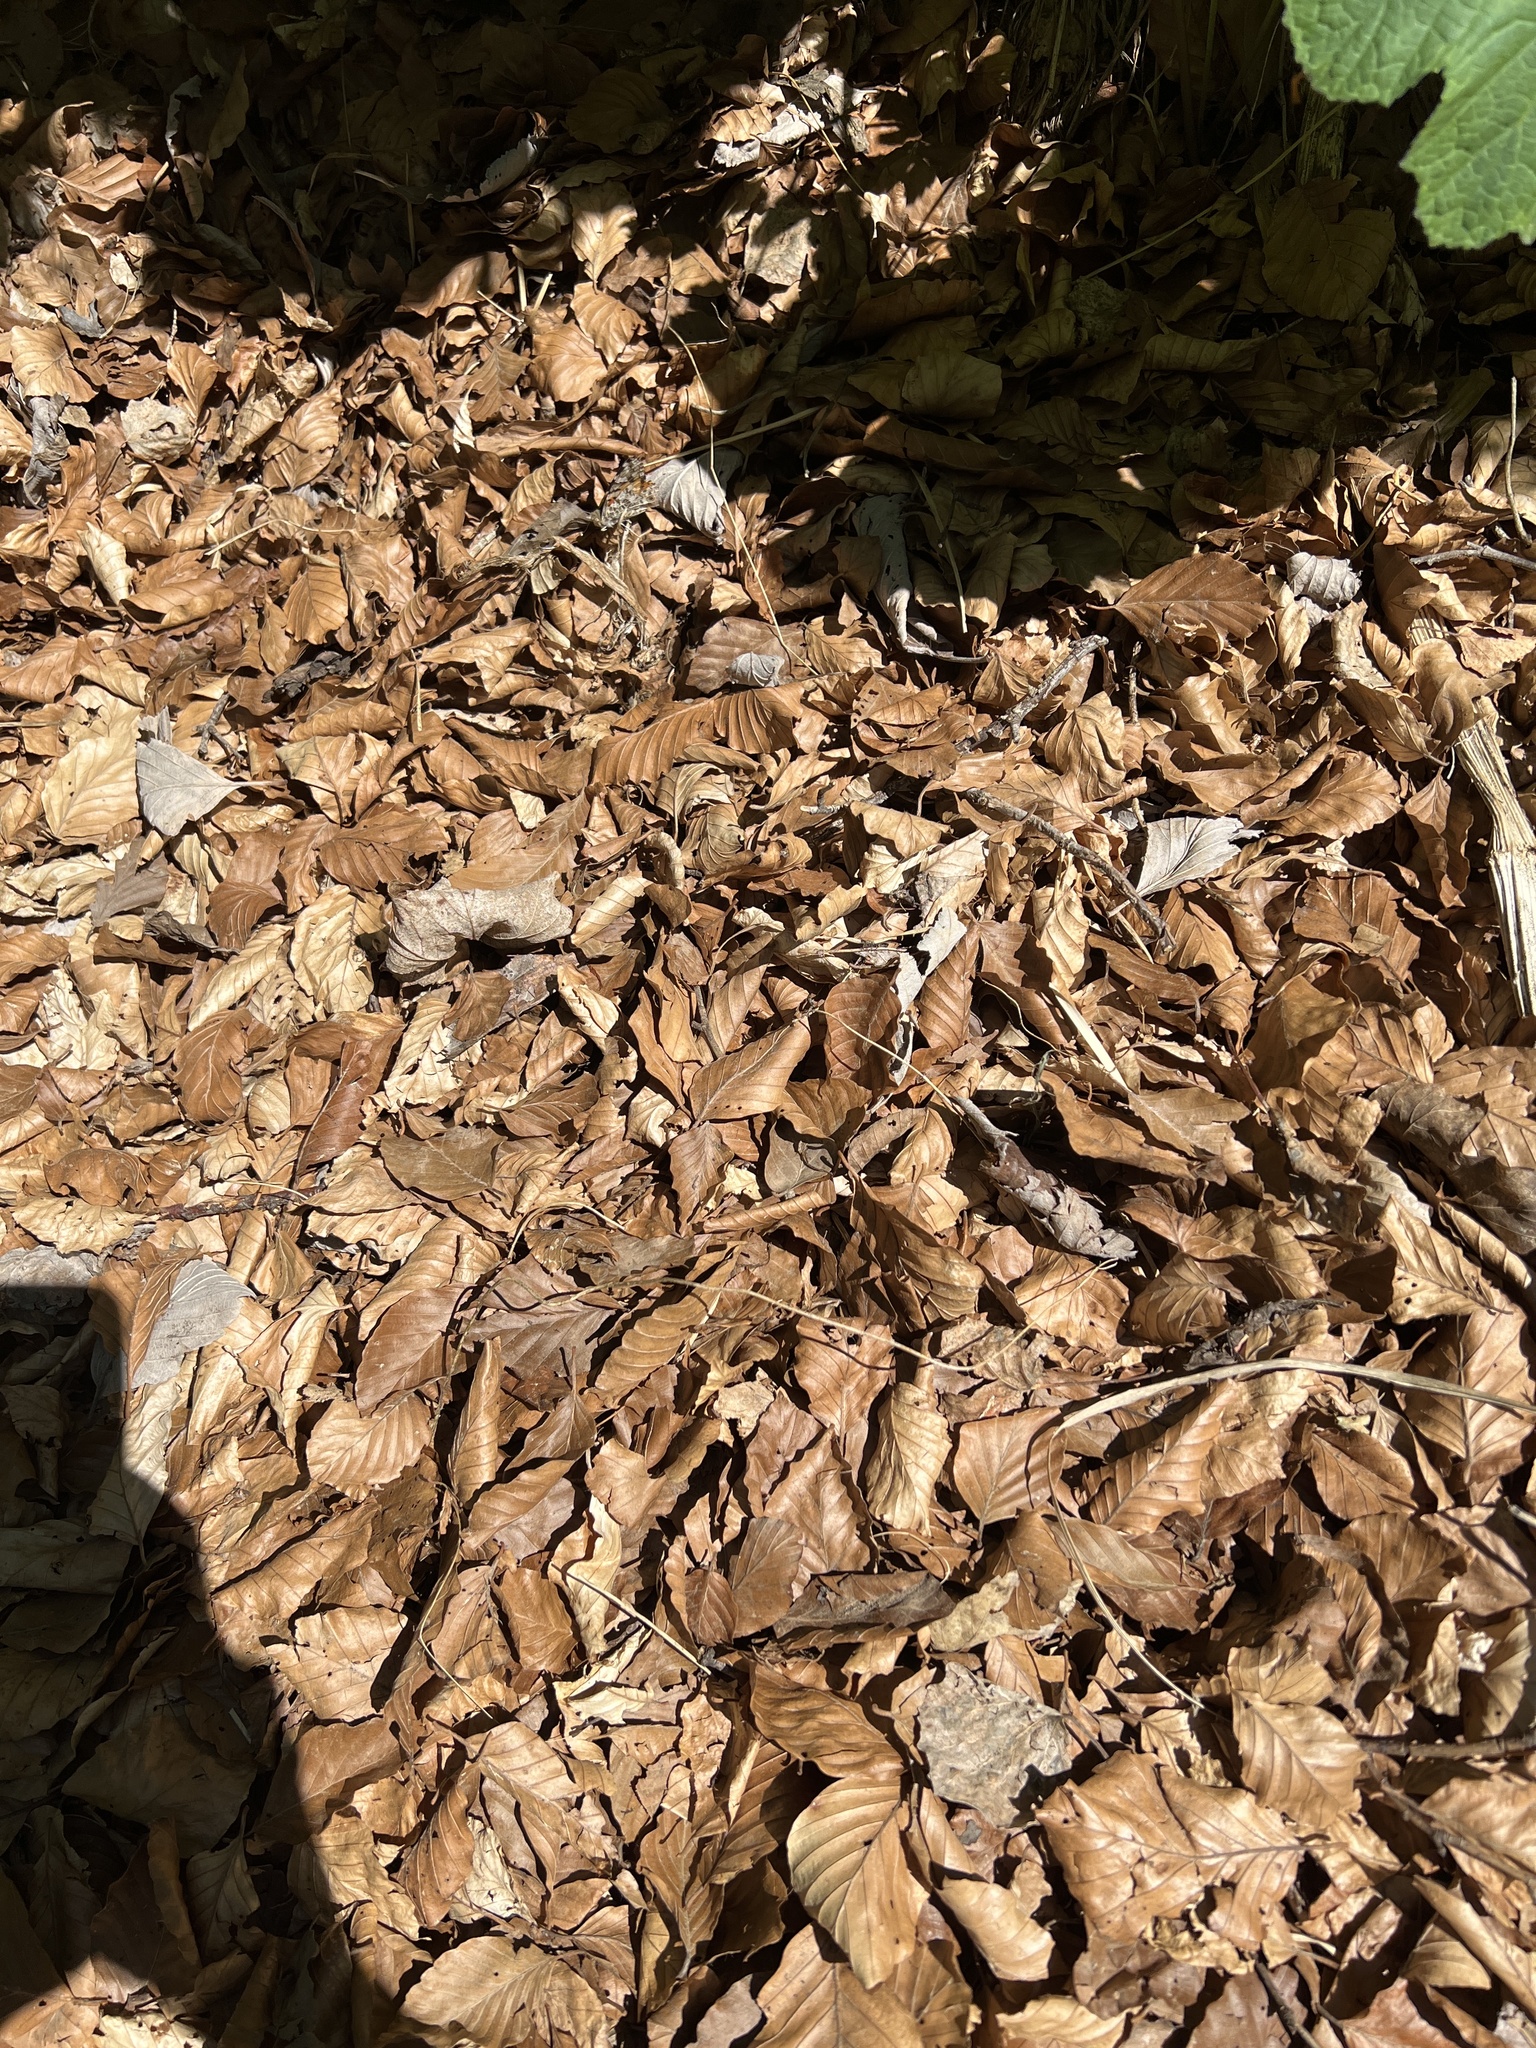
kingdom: Animalia
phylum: Arthropoda
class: Insecta
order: Lepidoptera
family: Nymphalidae
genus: Vanessa
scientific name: Vanessa cardui
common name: Painted lady
